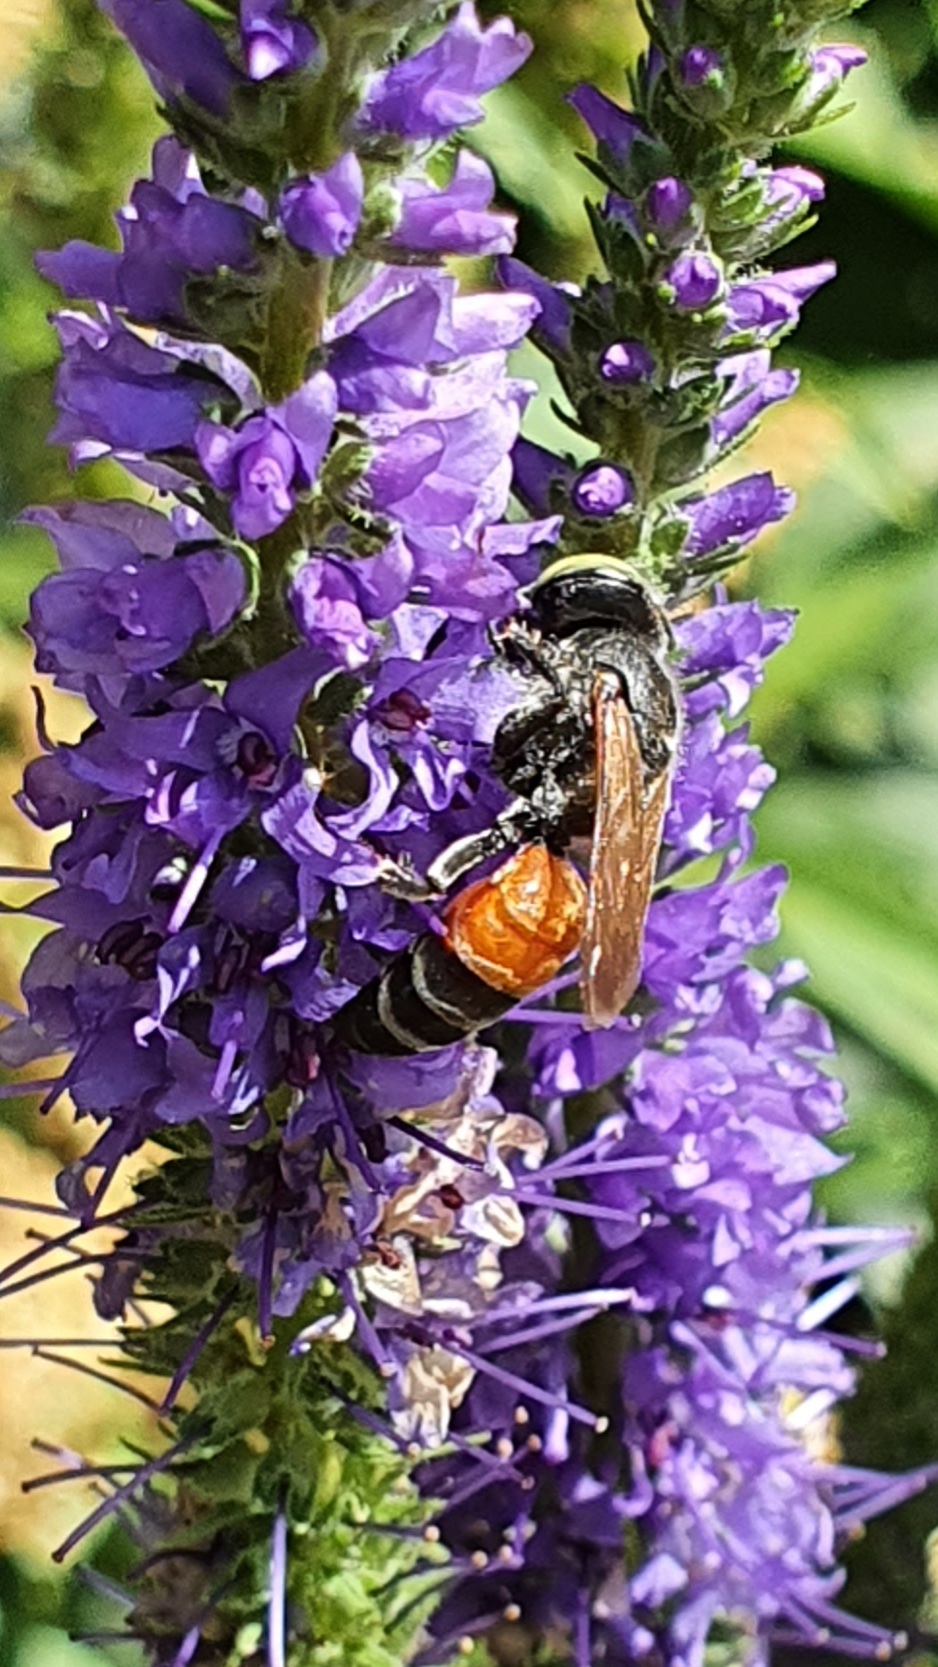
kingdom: Animalia
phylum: Arthropoda
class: Insecta
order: Hymenoptera
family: Crabronidae
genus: Tachytes
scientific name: Tachytes panzeri
